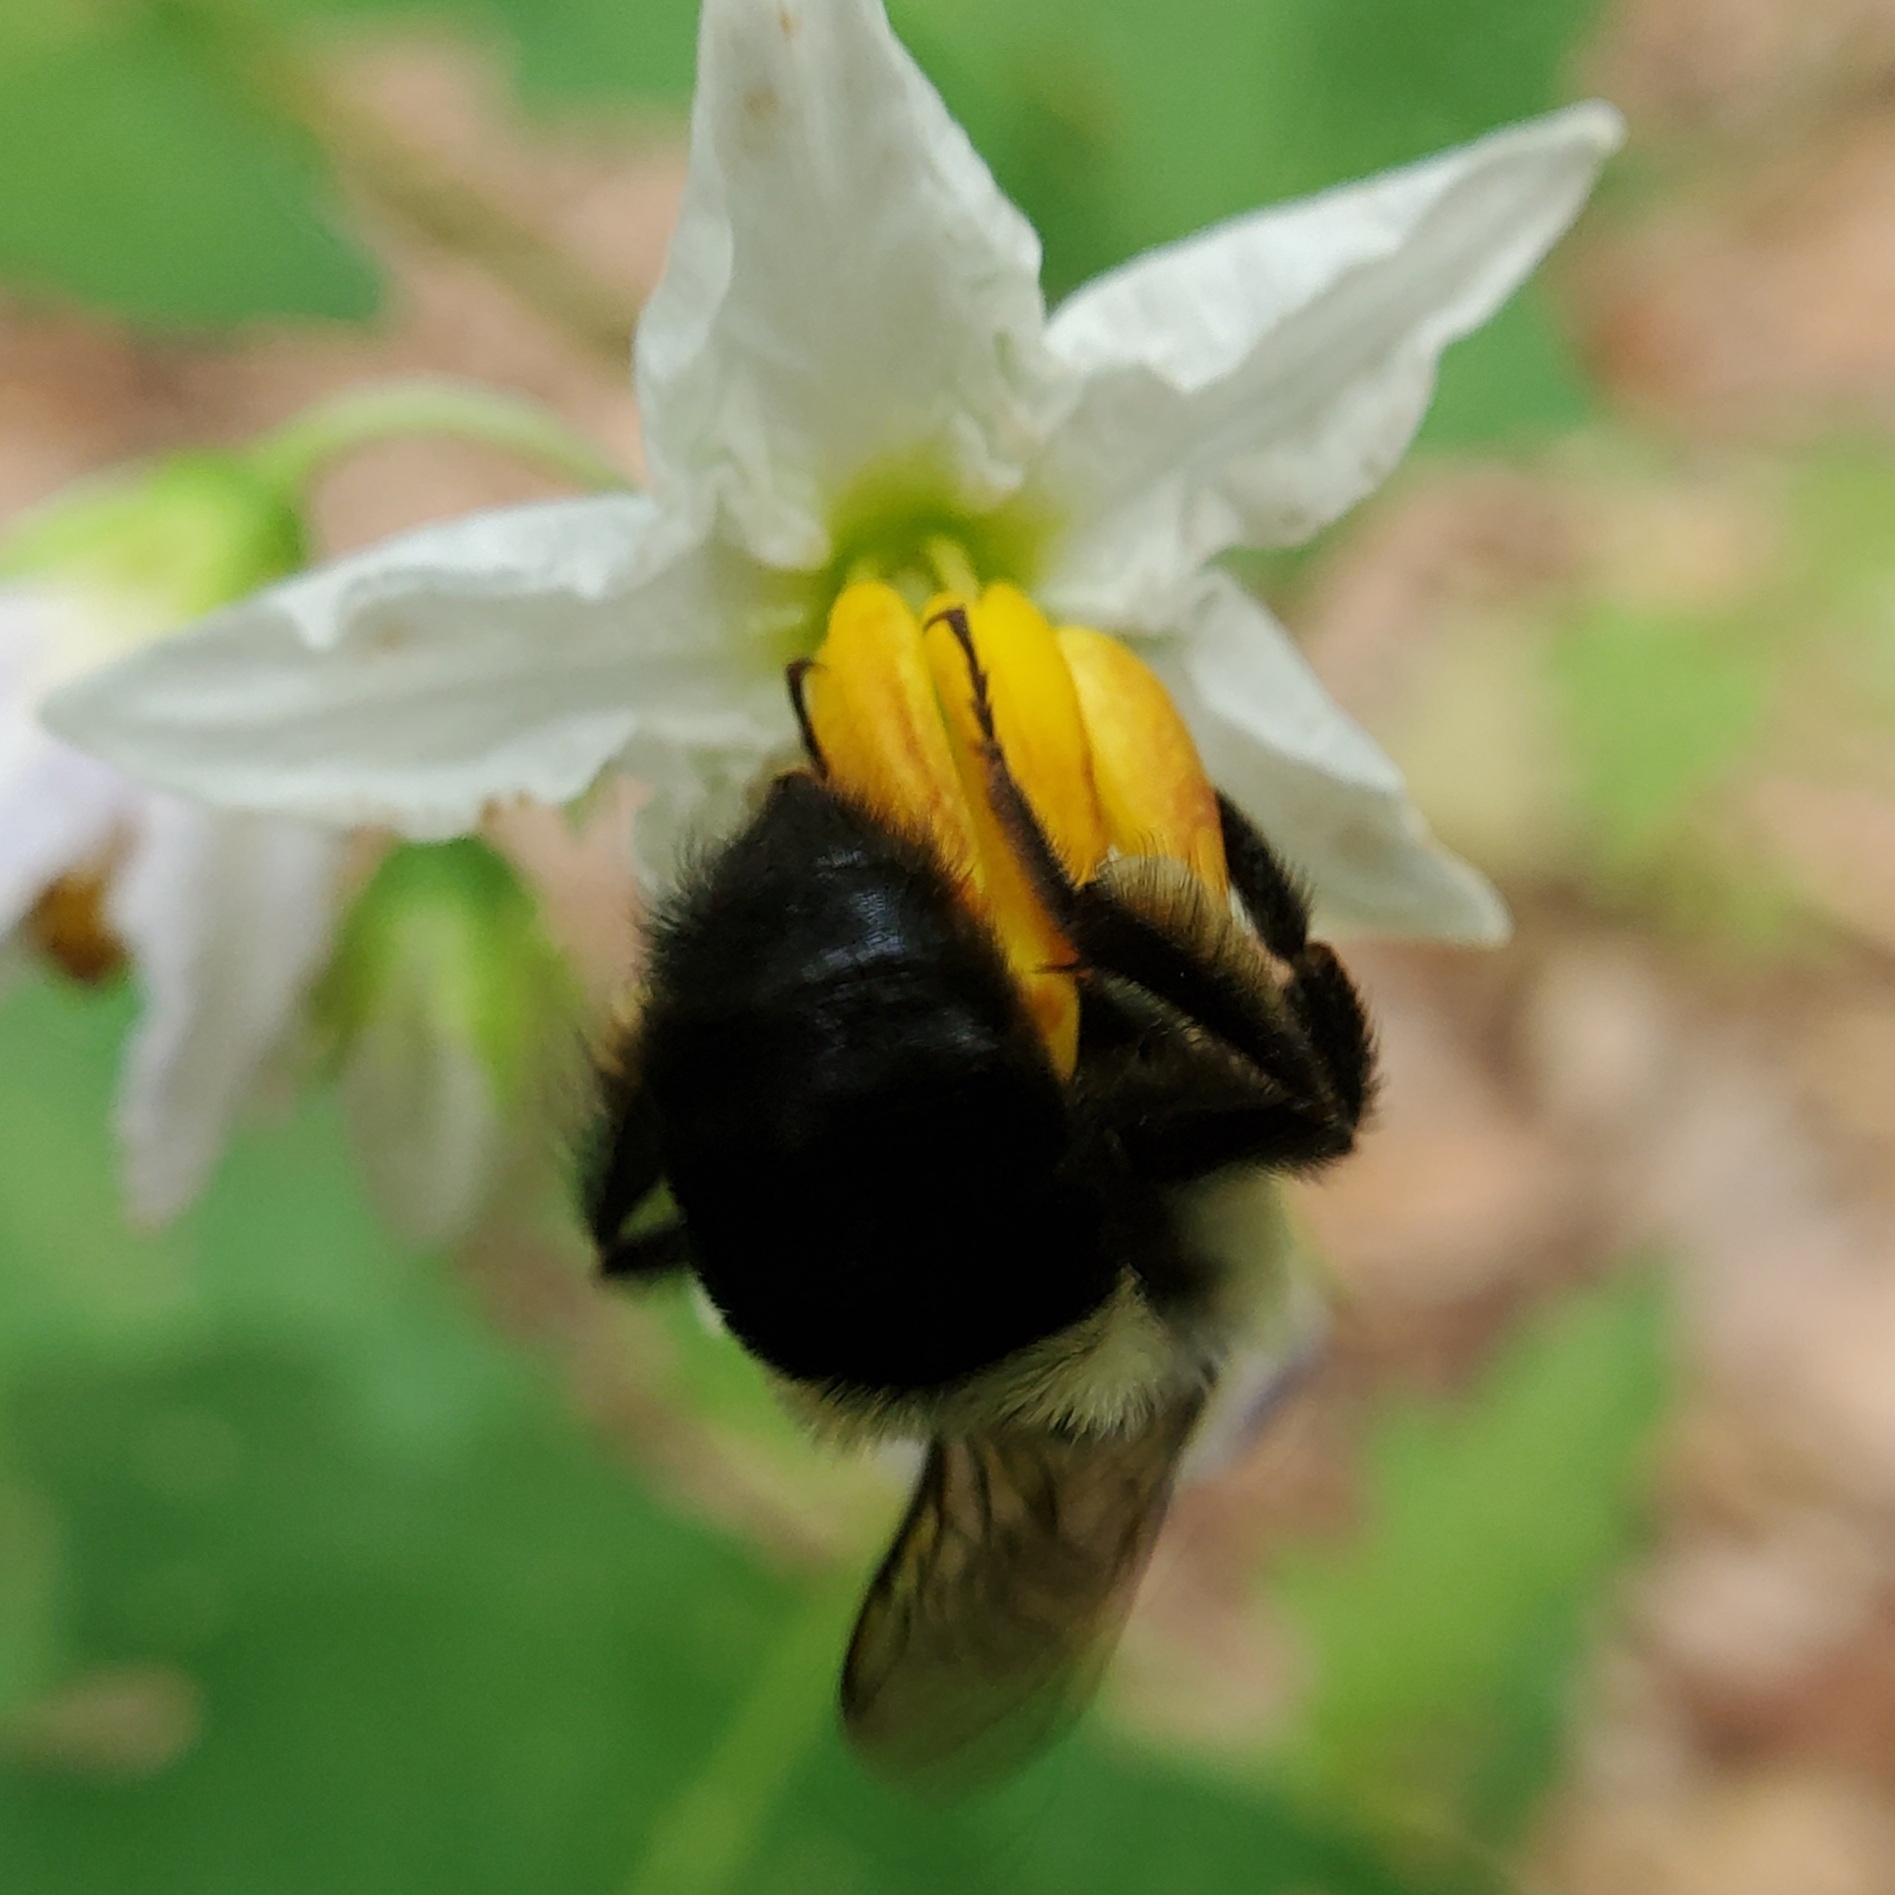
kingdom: Animalia
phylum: Arthropoda
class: Insecta
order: Hymenoptera
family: Apidae
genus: Bombus
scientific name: Bombus impatiens
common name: Common eastern bumble bee
